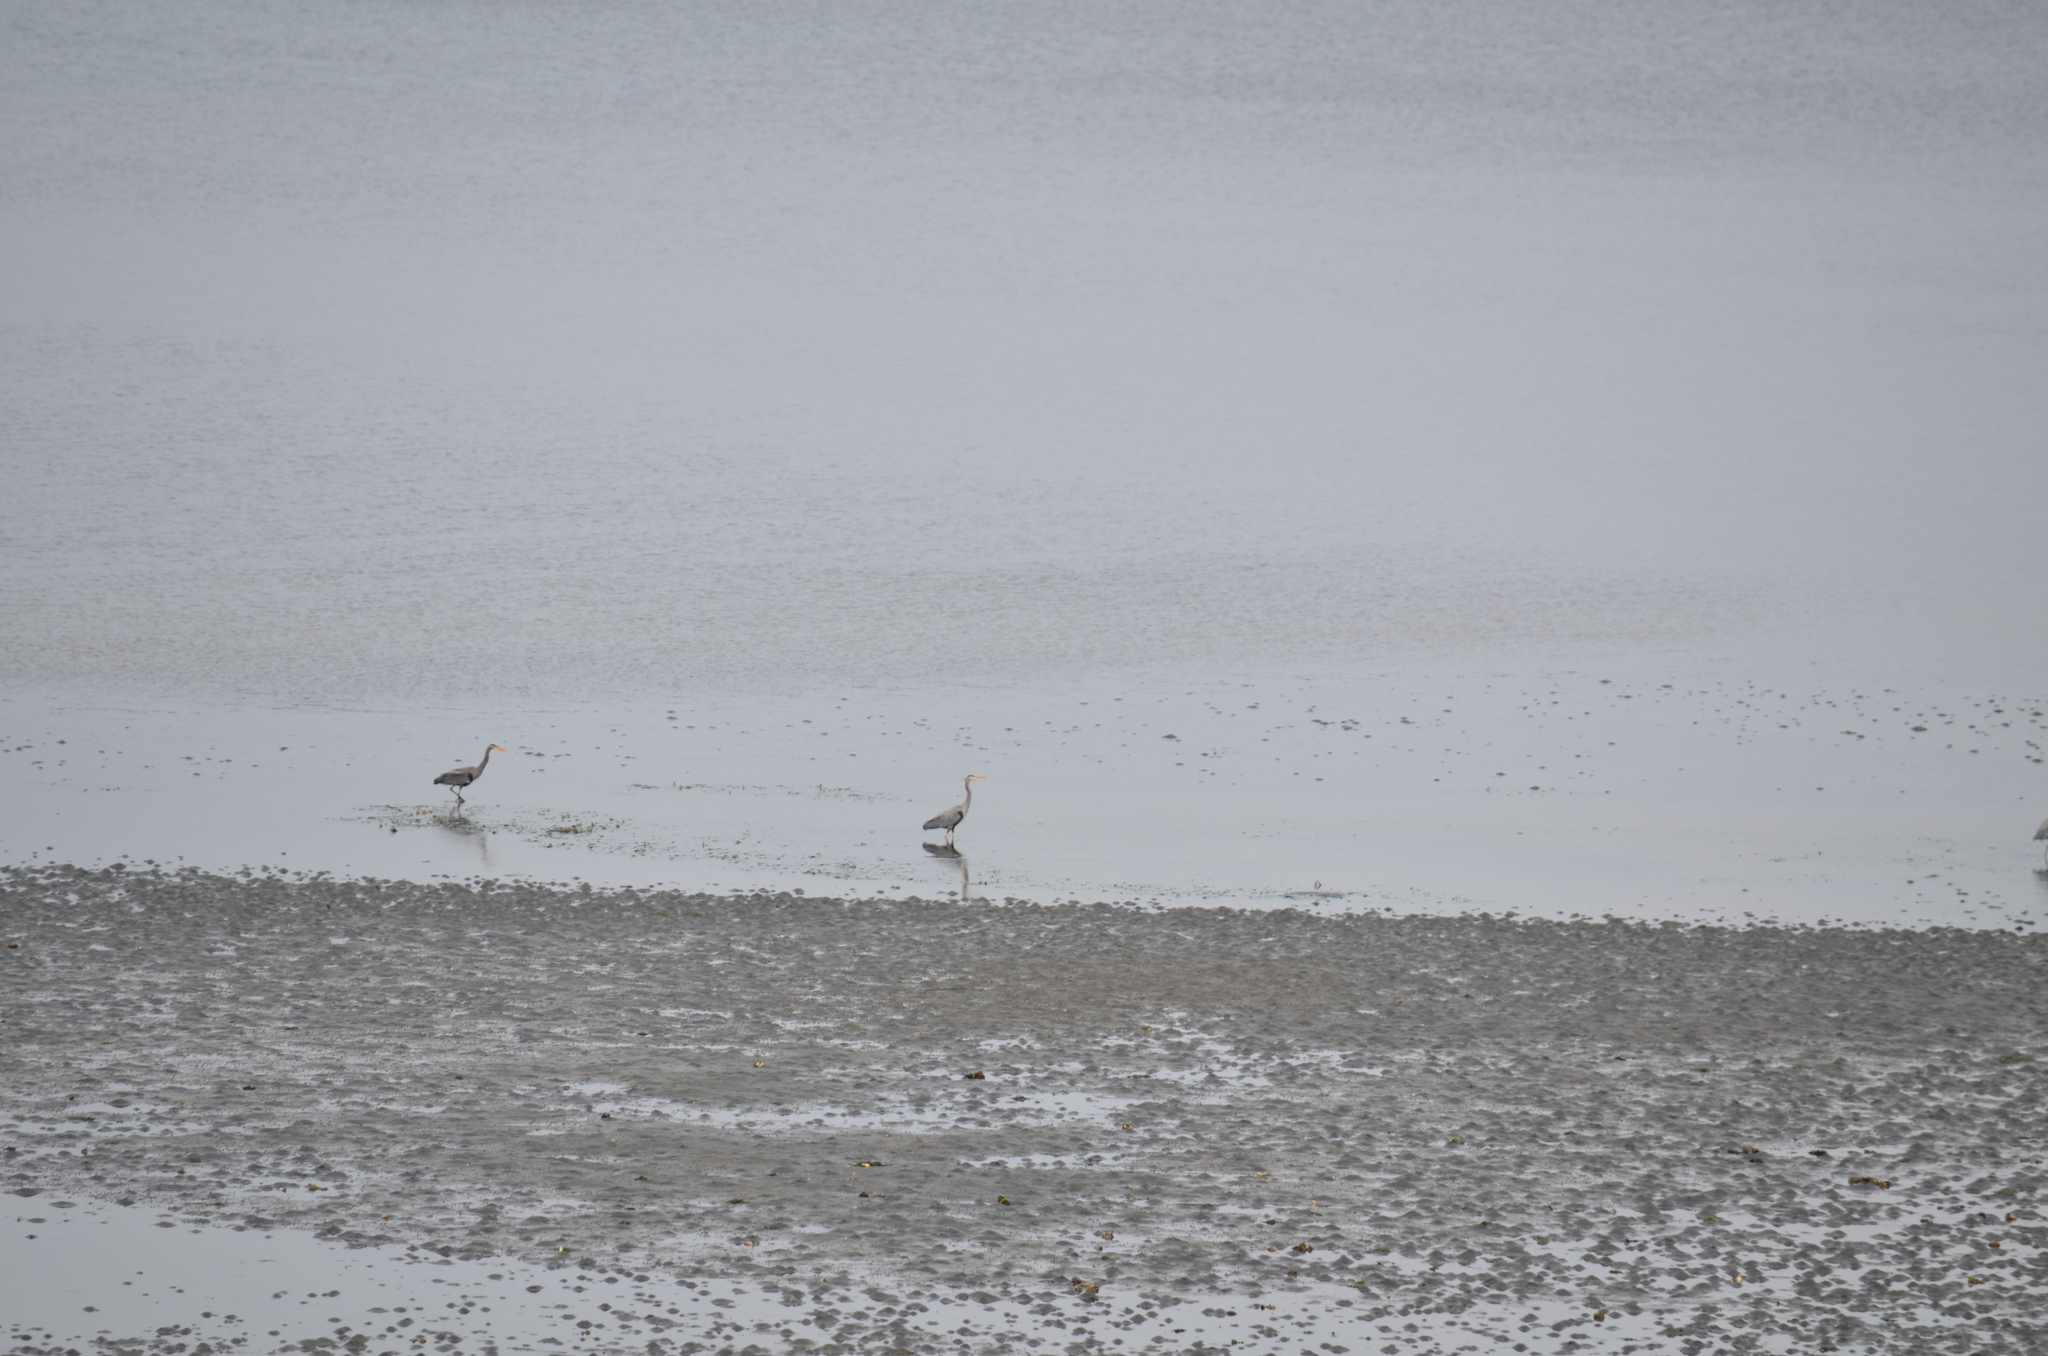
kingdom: Animalia
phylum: Chordata
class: Aves
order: Pelecaniformes
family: Ardeidae
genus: Ardea
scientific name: Ardea herodias
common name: Great blue heron
